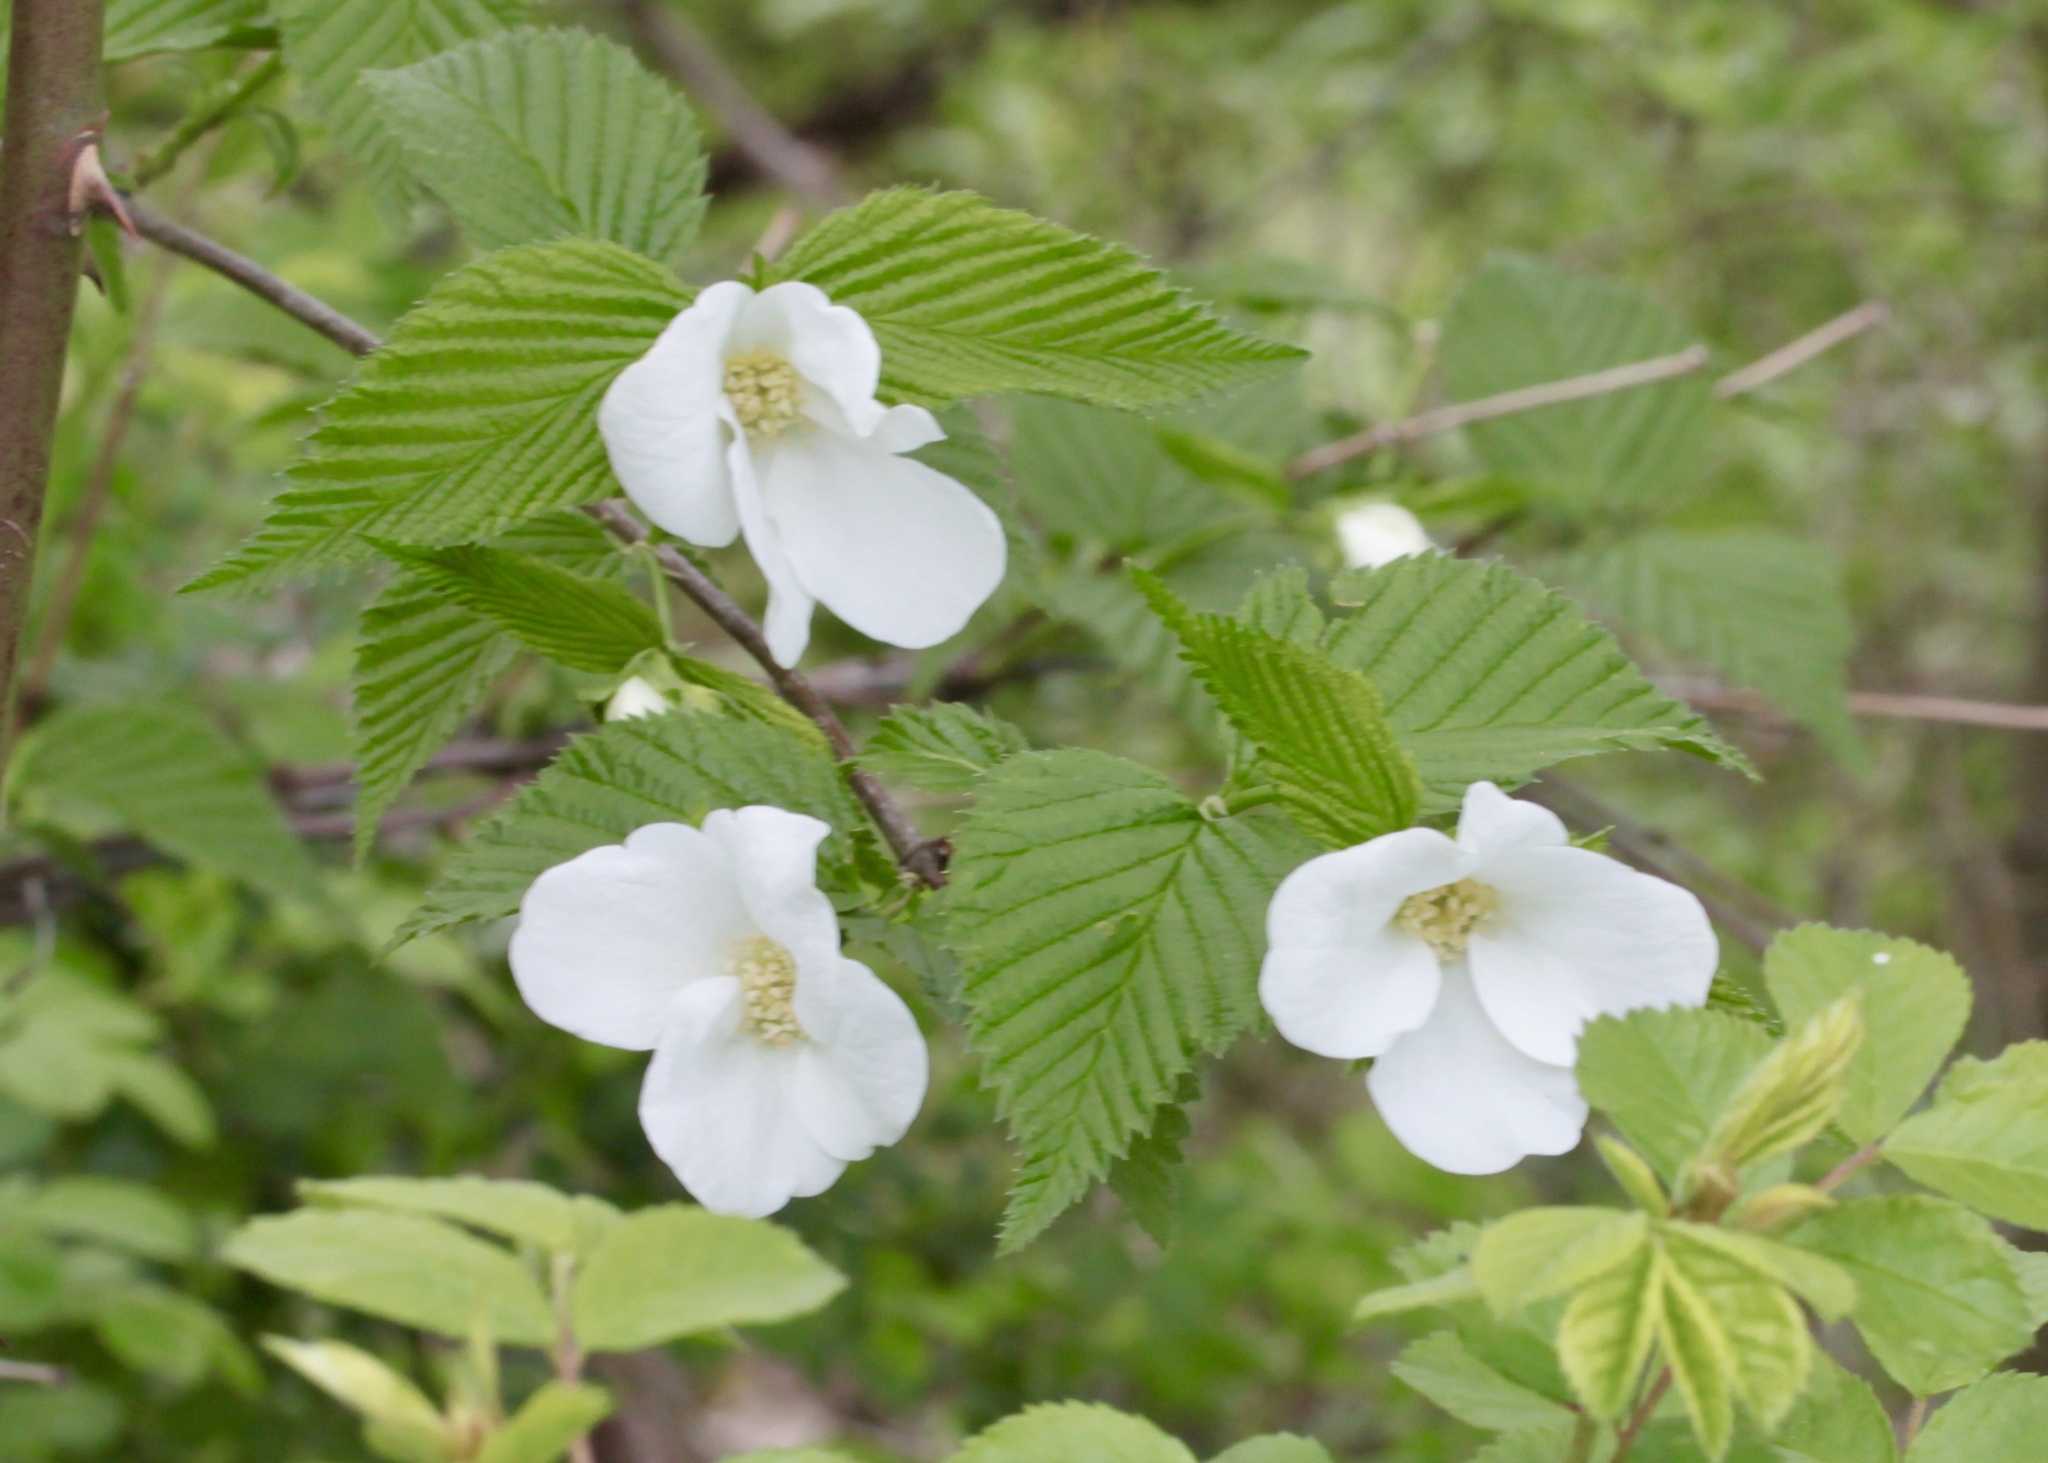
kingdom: Plantae
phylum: Tracheophyta
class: Magnoliopsida
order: Rosales
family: Rosaceae
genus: Rhodotypos
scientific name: Rhodotypos scandens
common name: Jetbead
